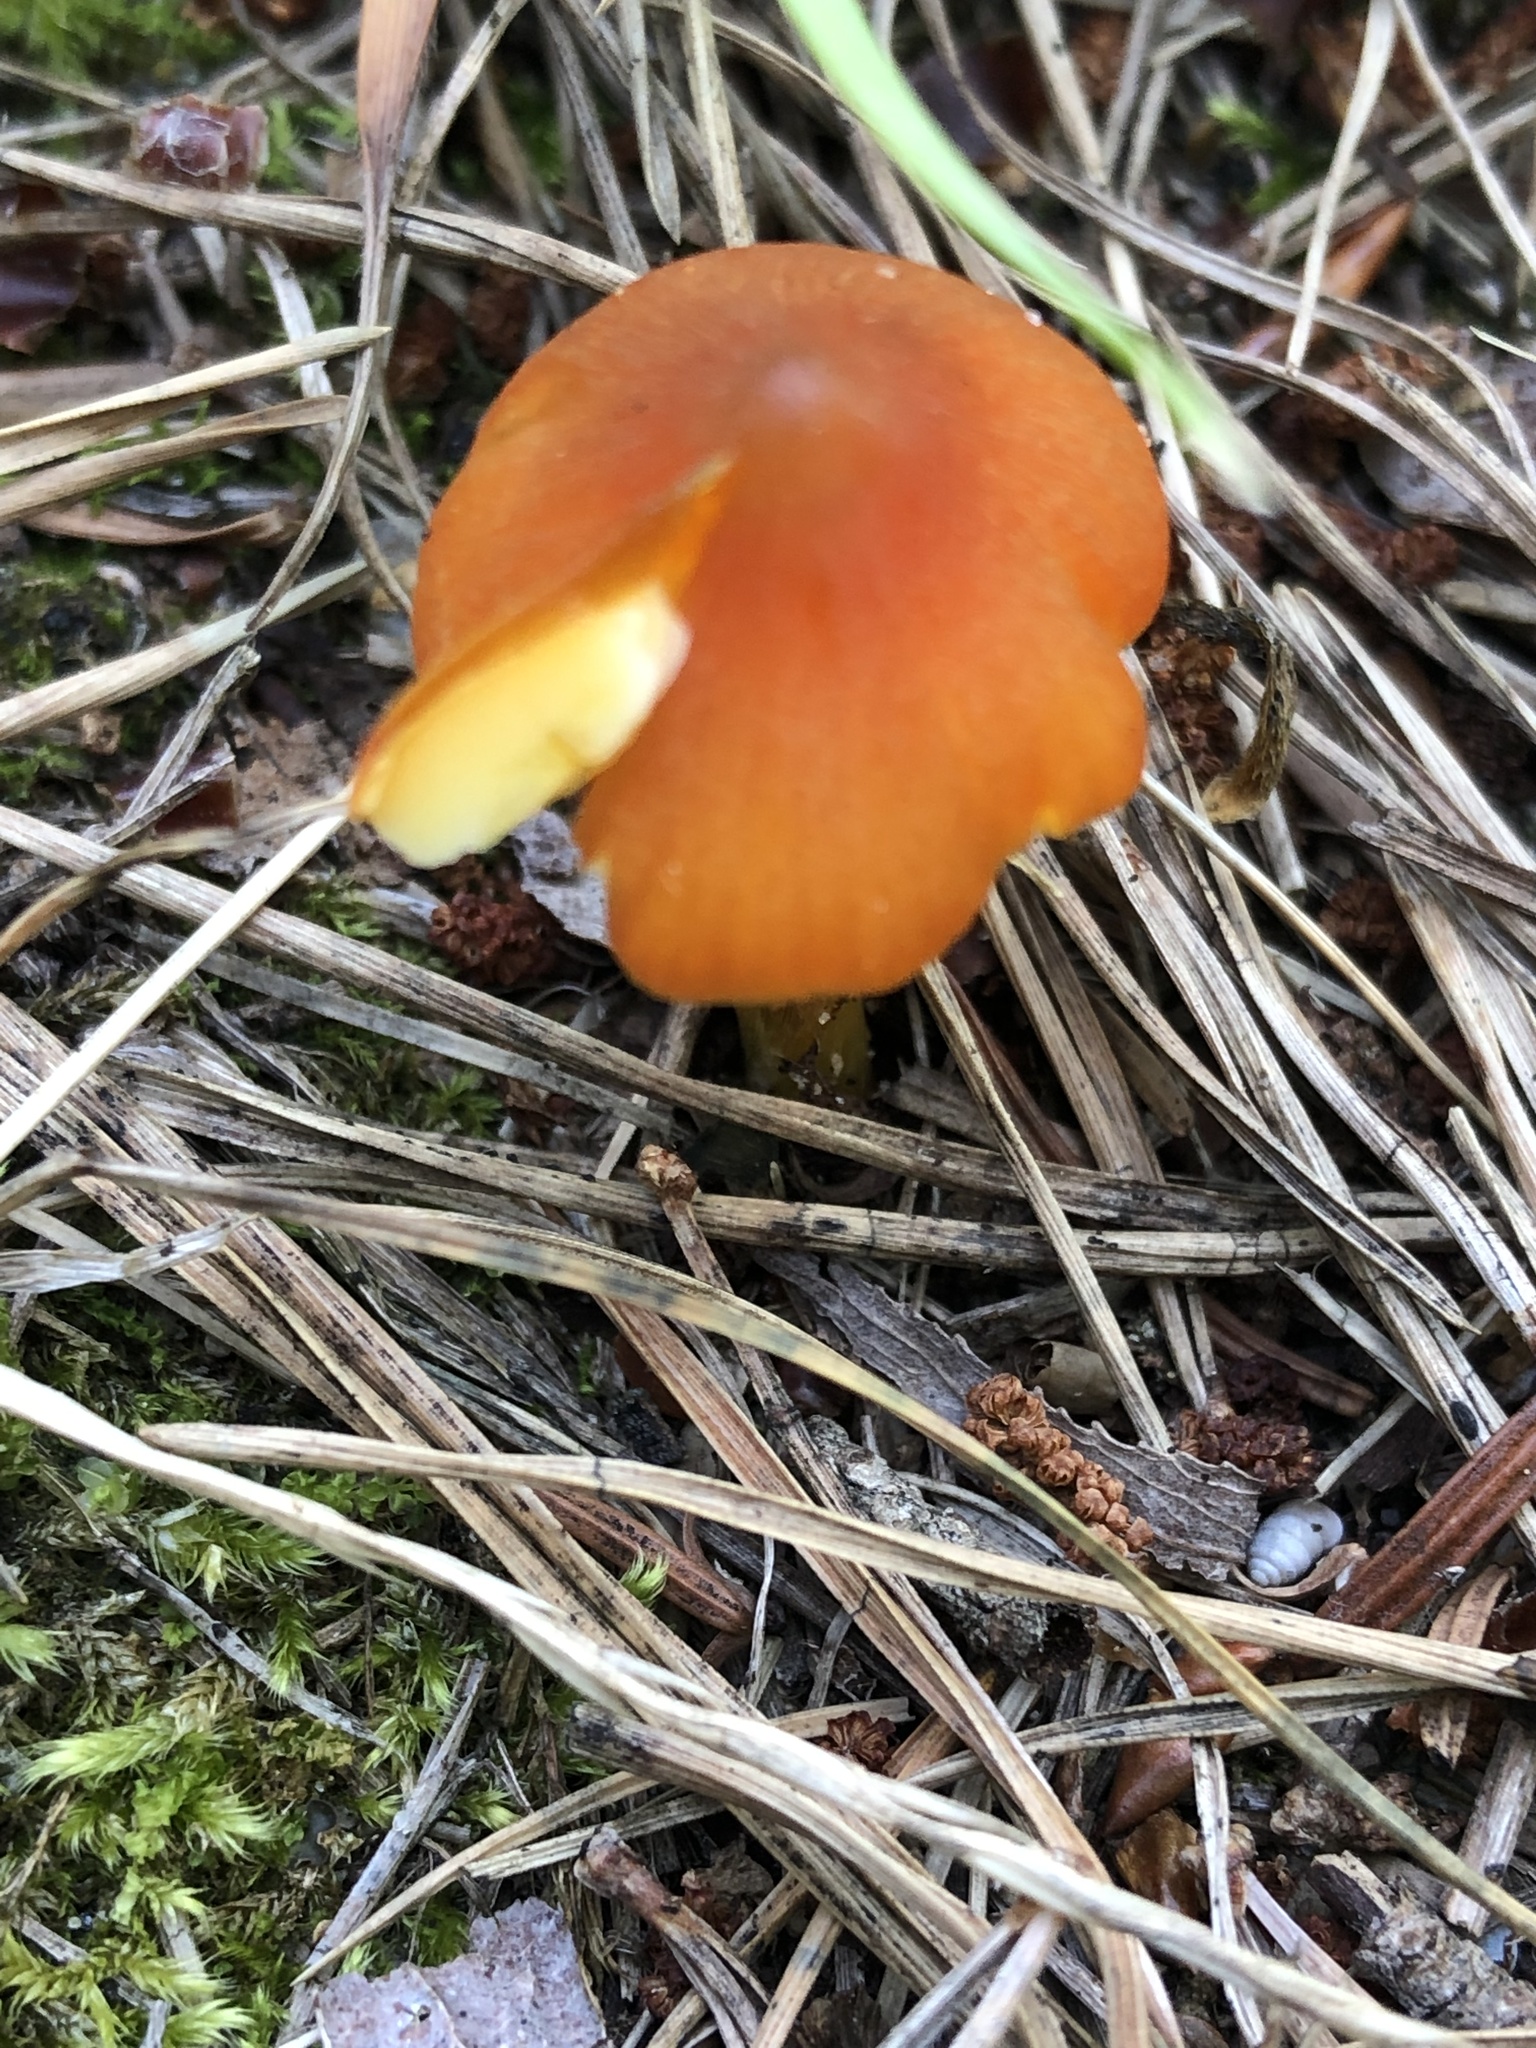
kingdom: Fungi
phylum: Basidiomycota
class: Agaricomycetes
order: Agaricales
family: Hygrophoraceae
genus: Hygrocybe
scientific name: Hygrocybe conica
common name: Blackening wax-cap
